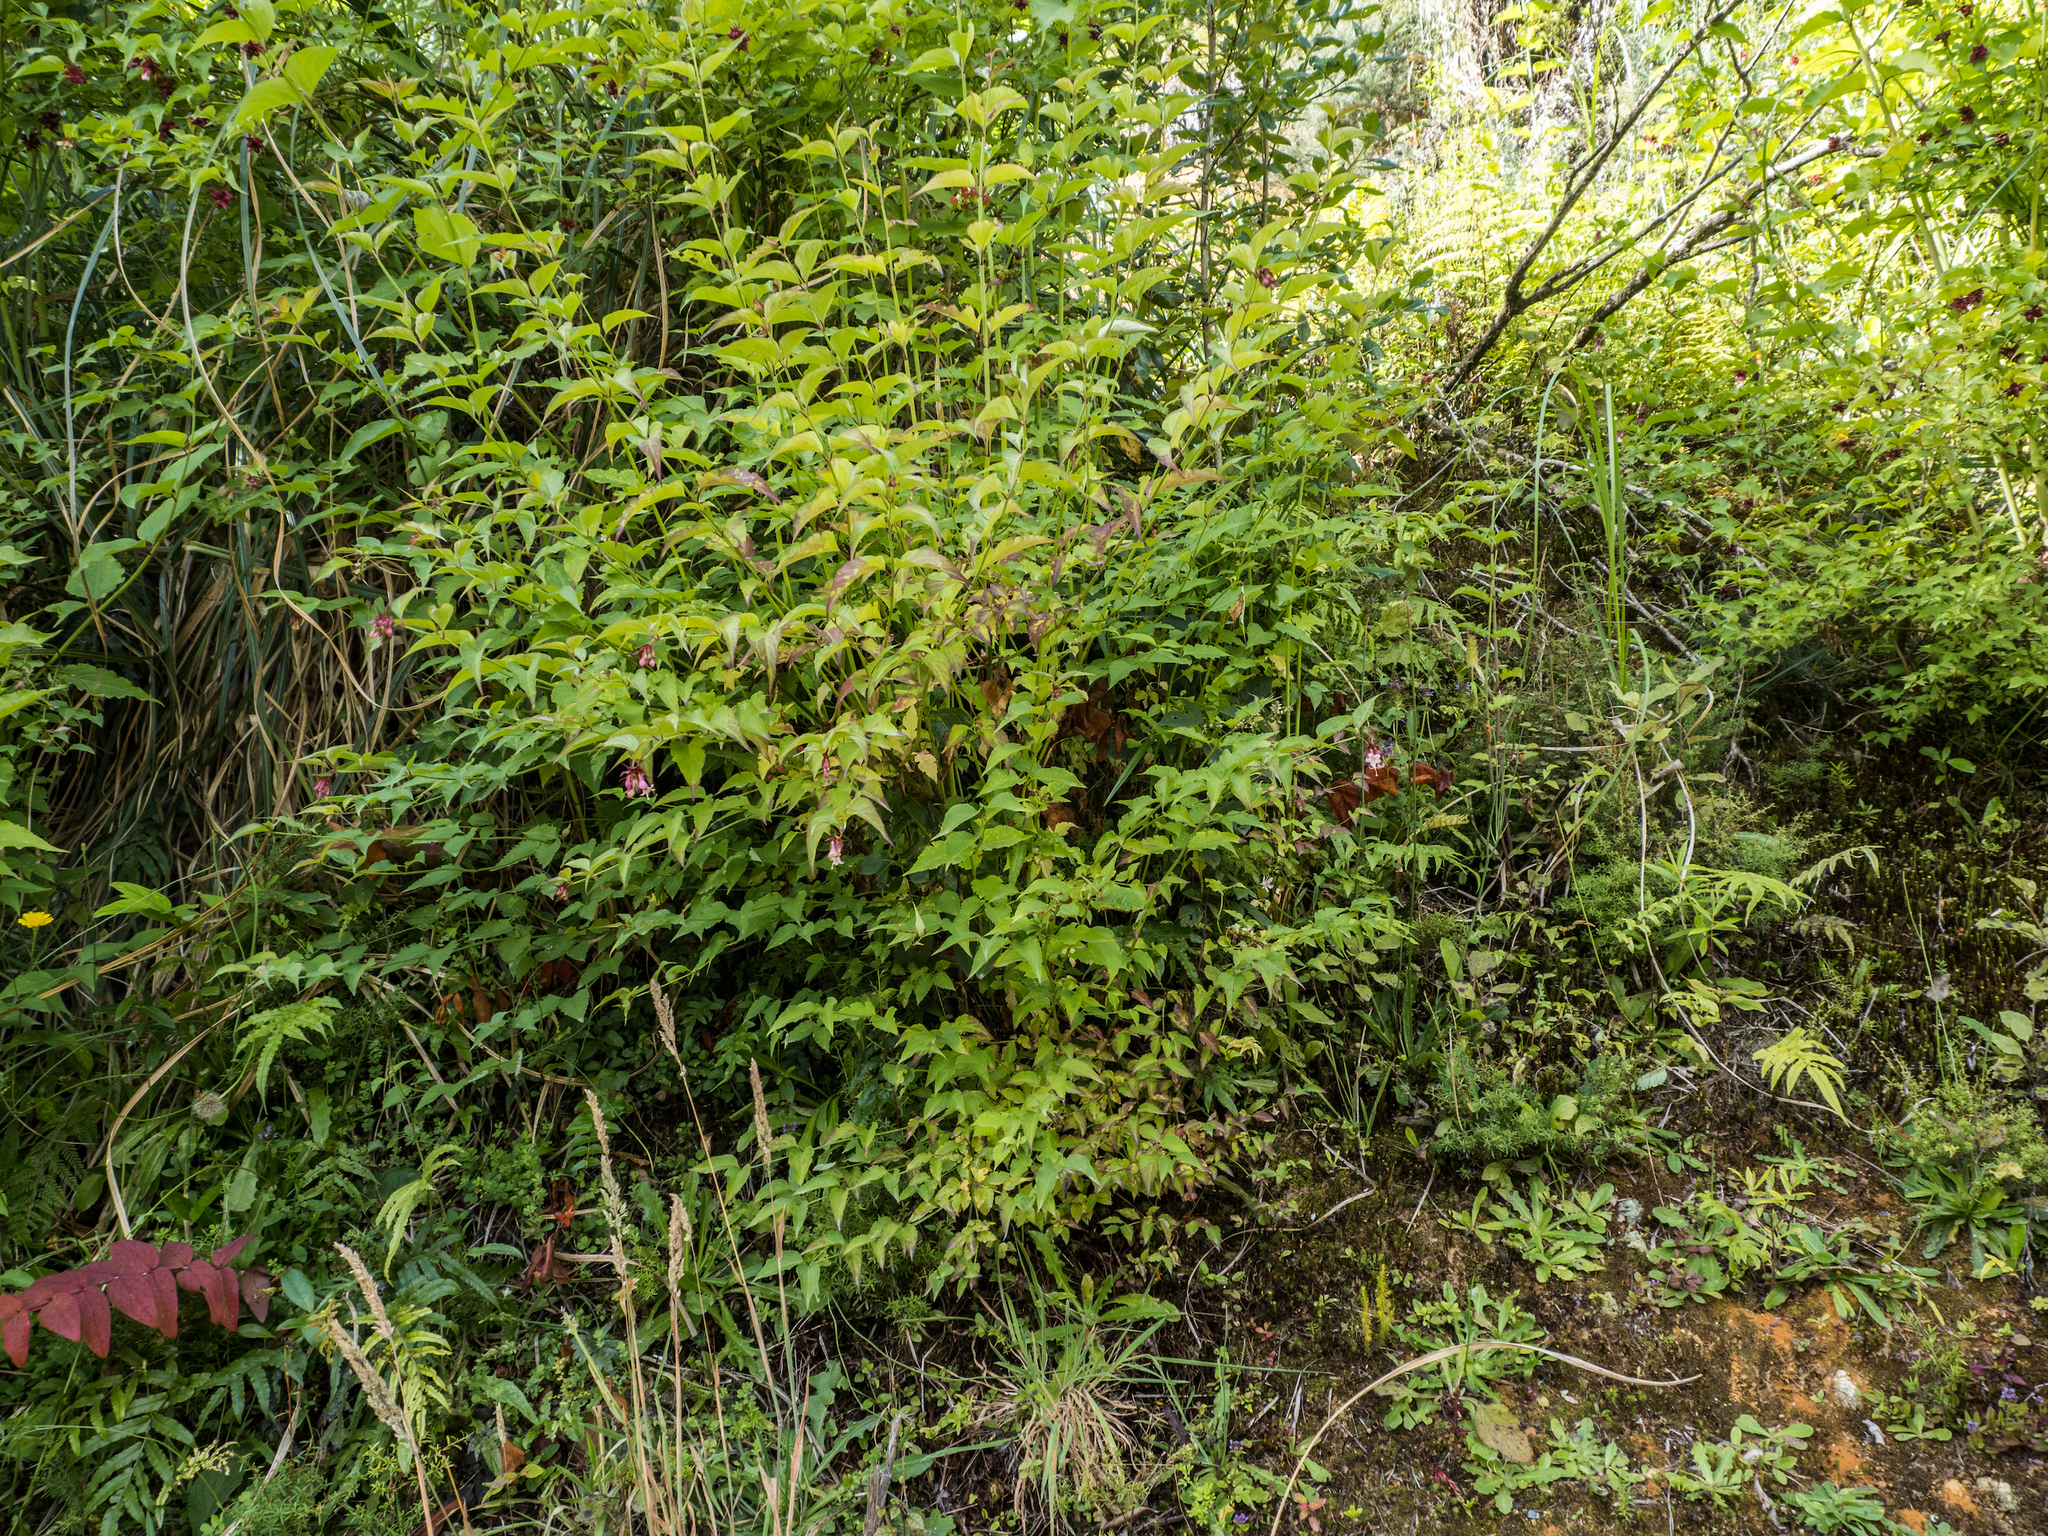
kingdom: Plantae
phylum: Tracheophyta
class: Magnoliopsida
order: Dipsacales
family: Caprifoliaceae
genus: Leycesteria
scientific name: Leycesteria formosa
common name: Himalayan honeysuckle
